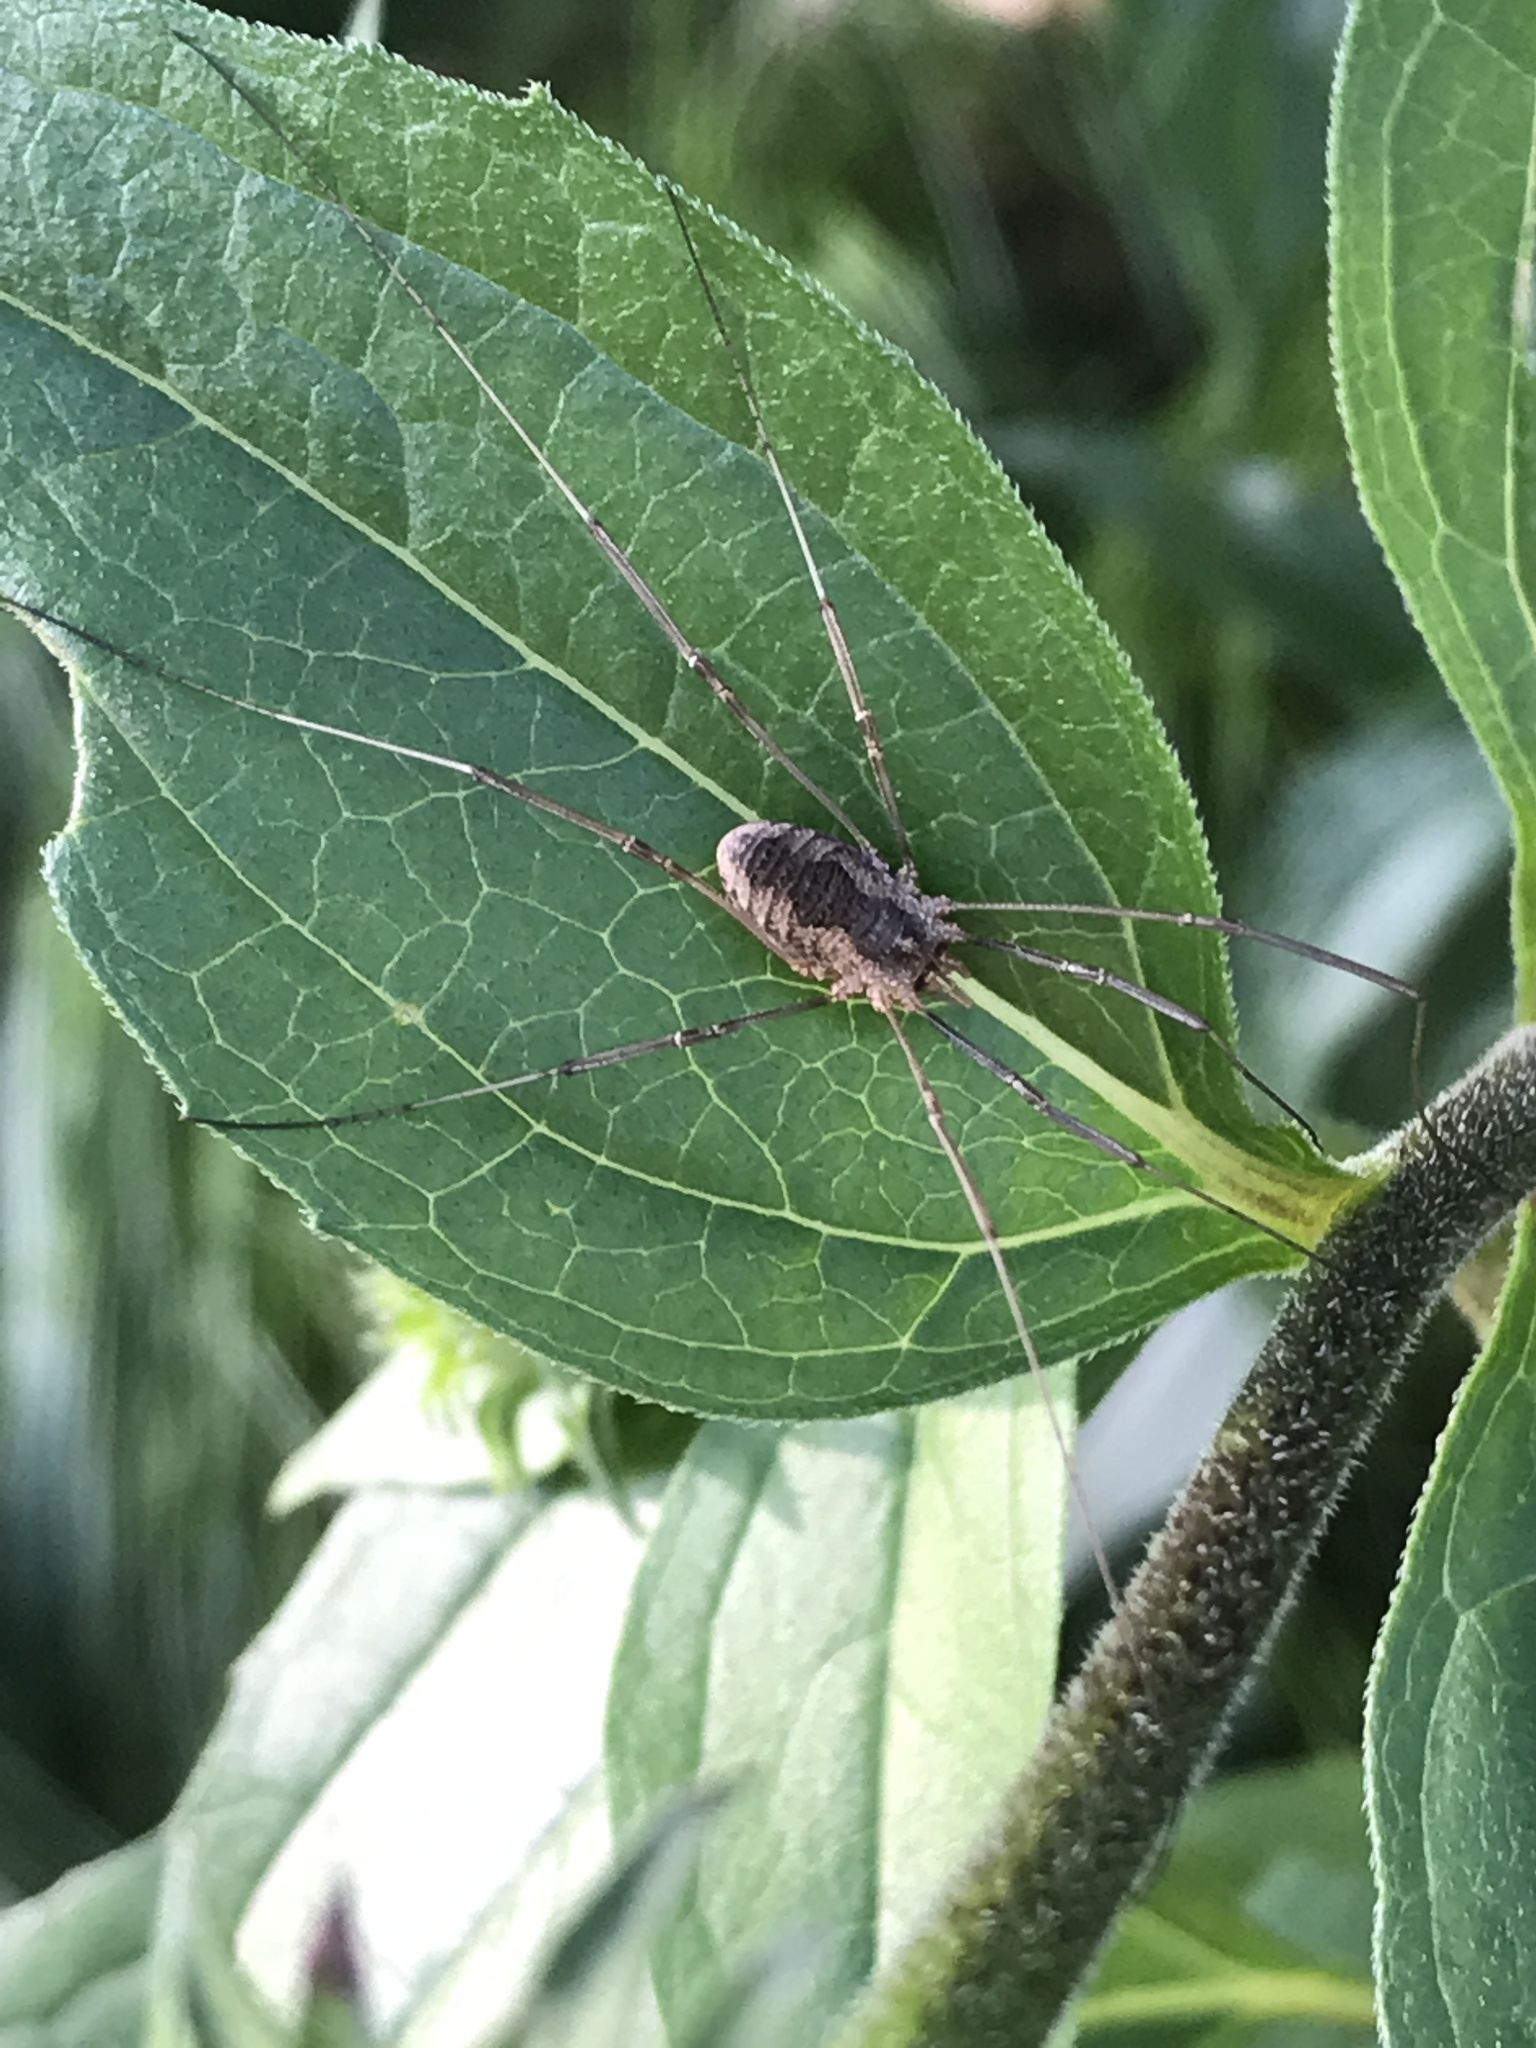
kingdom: Animalia
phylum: Arthropoda
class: Arachnida
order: Opiliones
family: Phalangiidae
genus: Phalangium
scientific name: Phalangium opilio
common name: Daddy longleg
